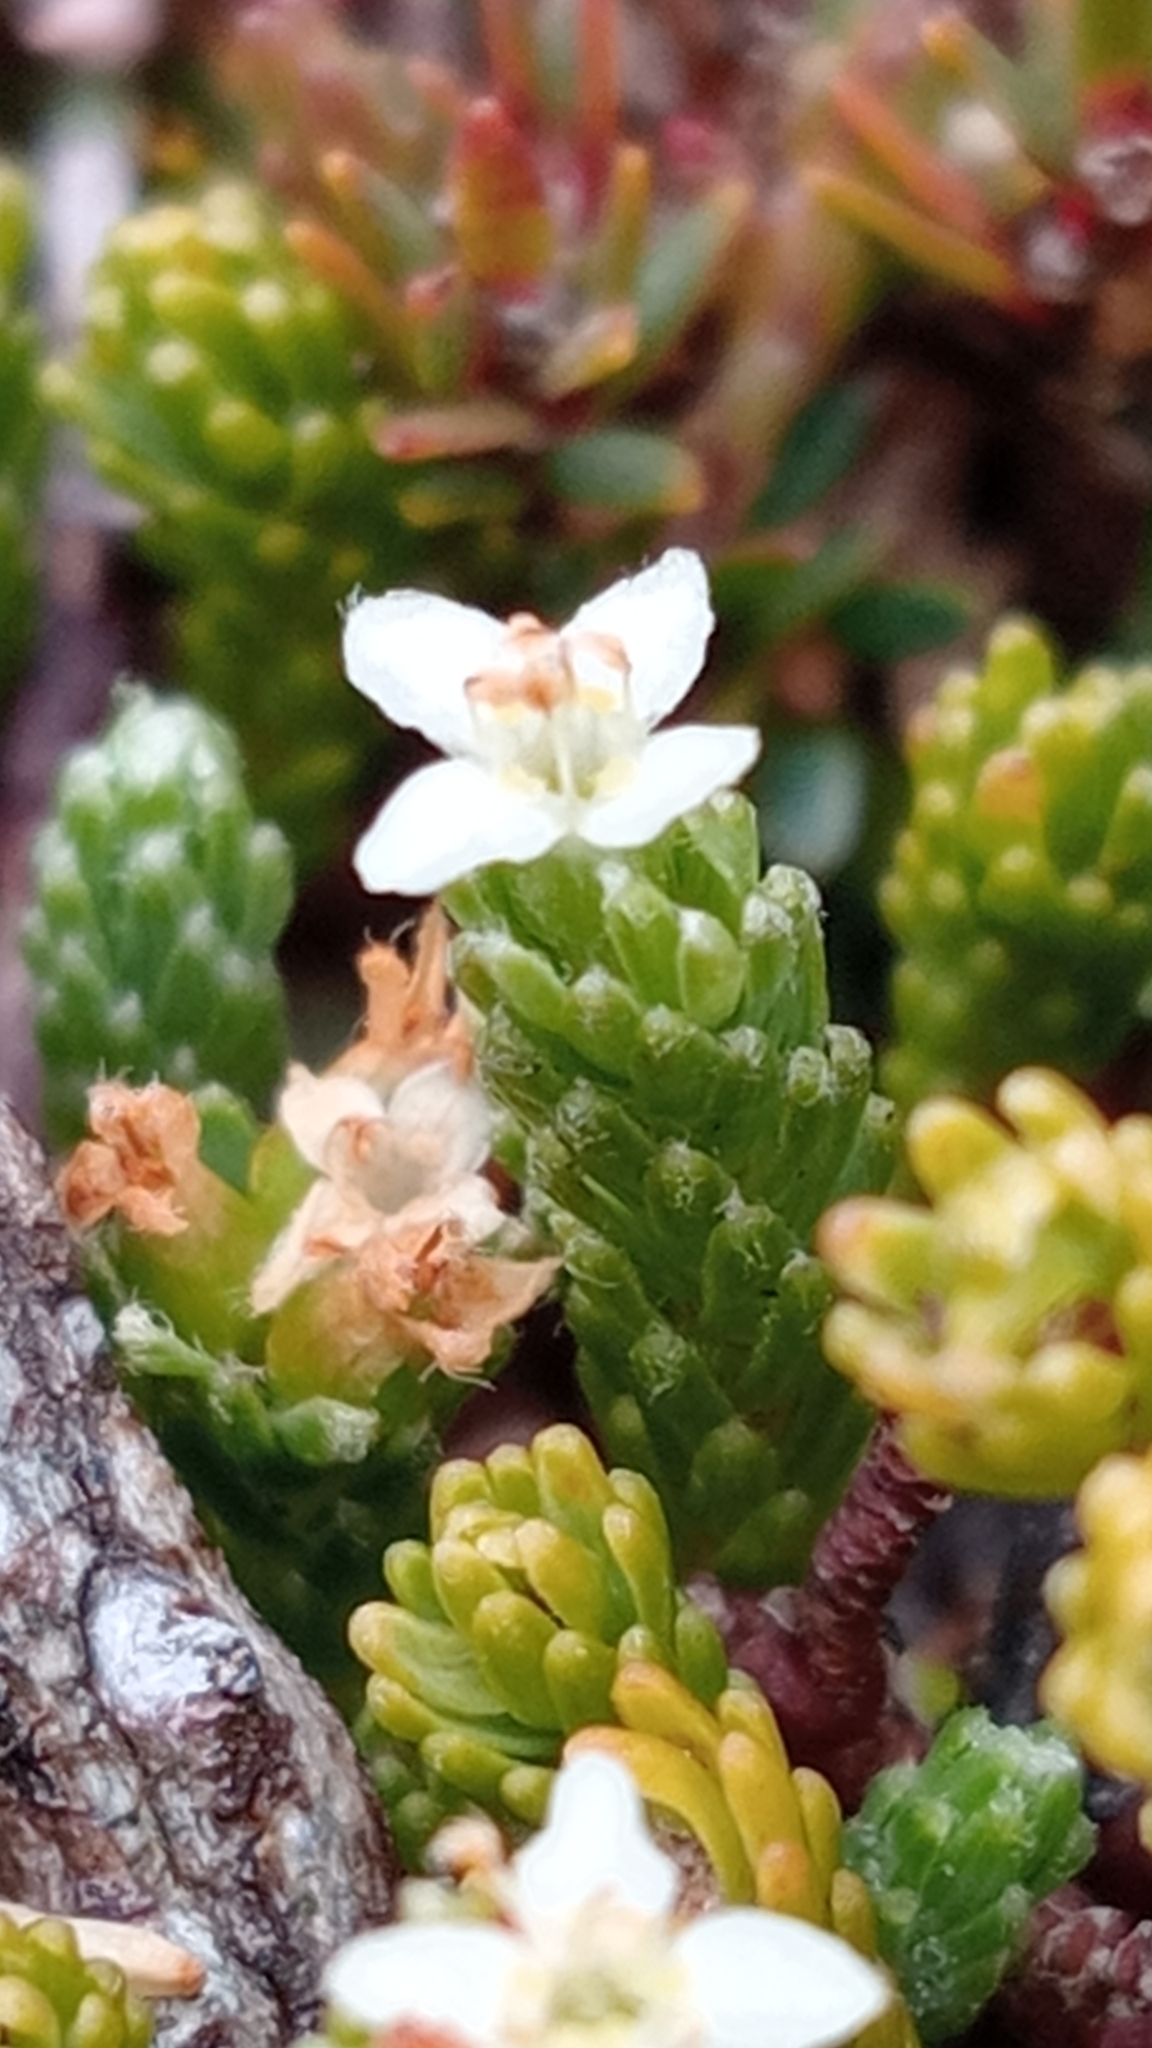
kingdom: Plantae
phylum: Tracheophyta
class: Magnoliopsida
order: Malvales
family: Thymelaeaceae
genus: Kelleria
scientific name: Kelleria dieffenbachii
